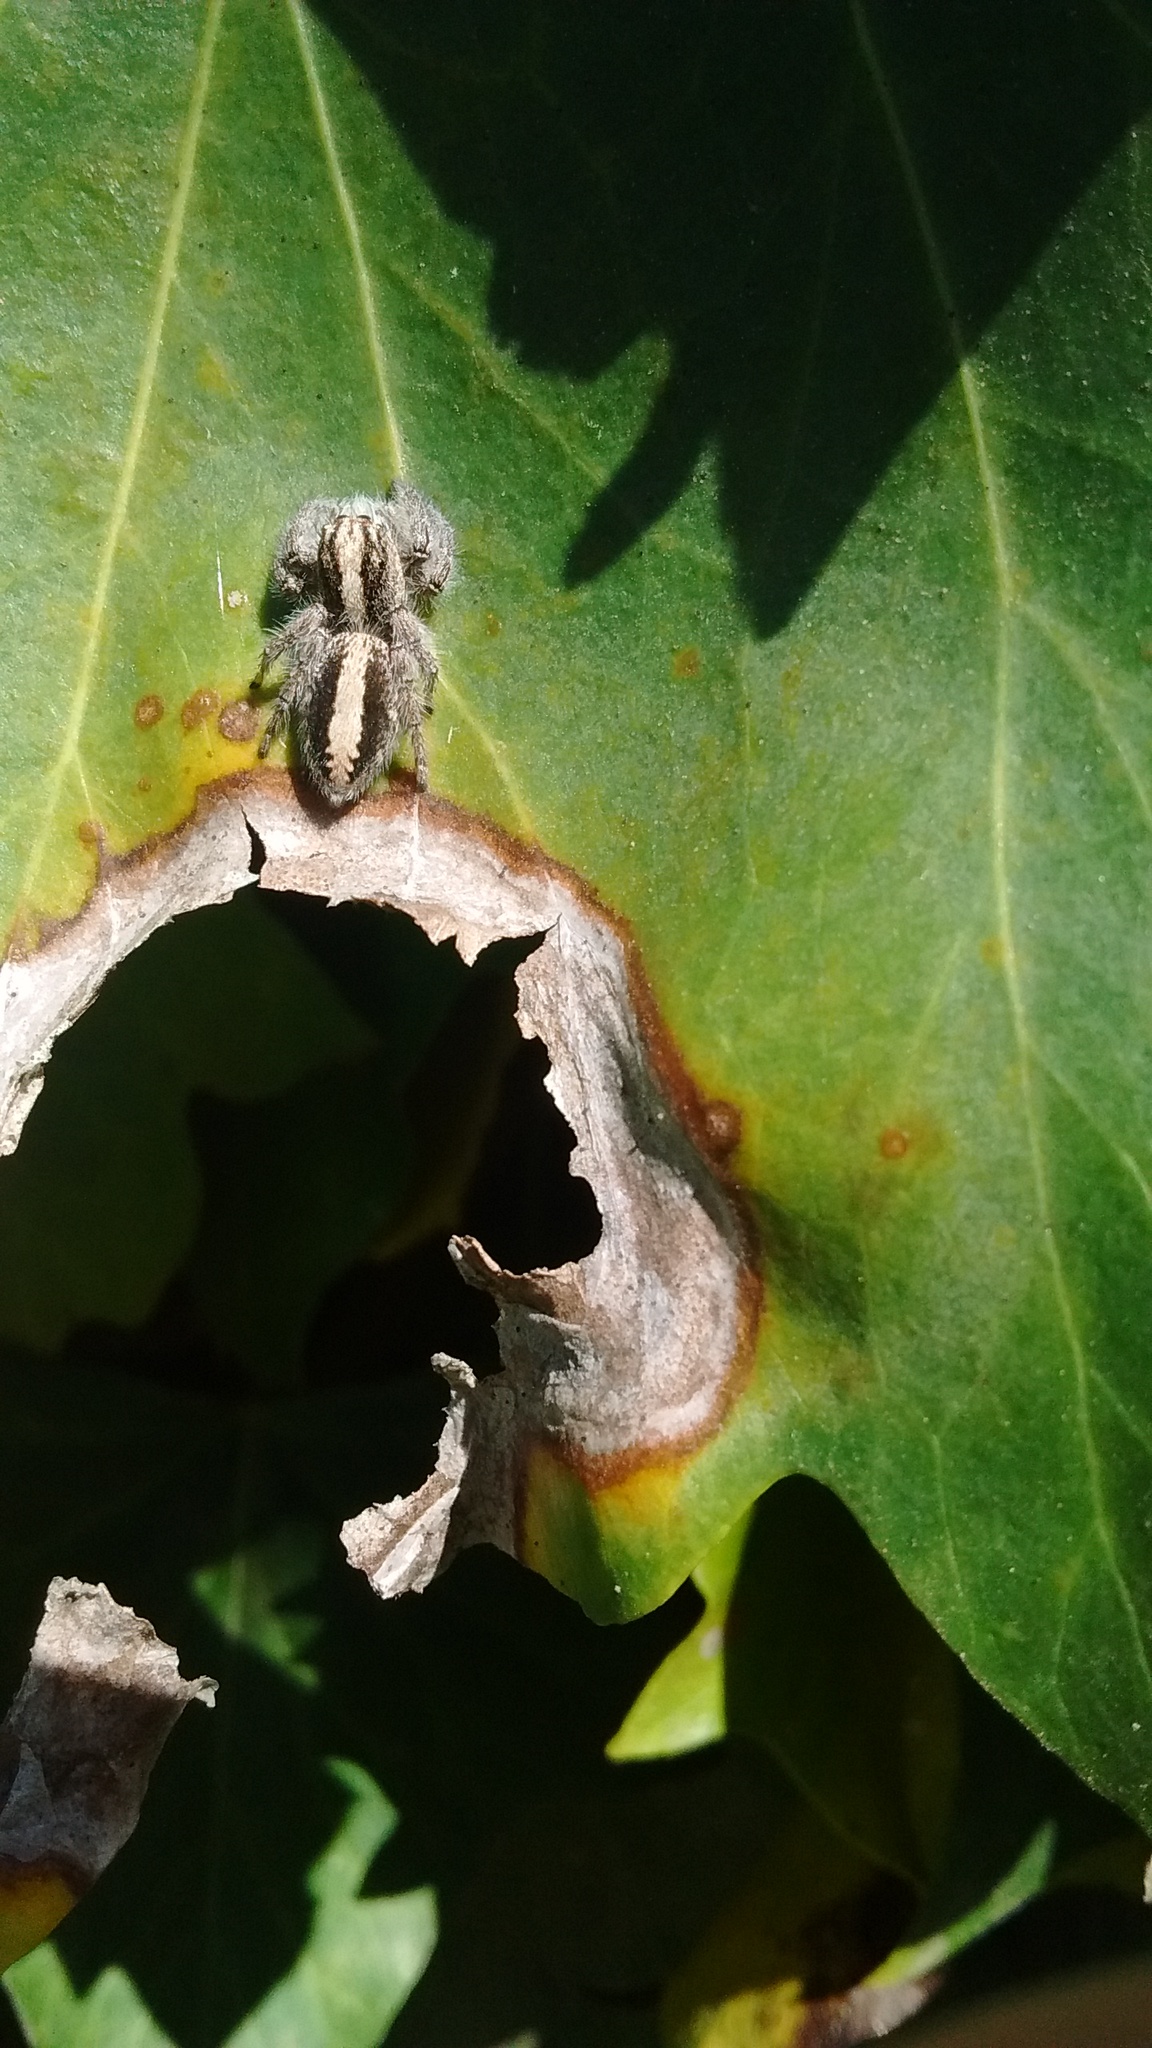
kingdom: Animalia
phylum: Arthropoda
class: Arachnida
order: Araneae
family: Salticidae
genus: Megafreya
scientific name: Megafreya sutrix
